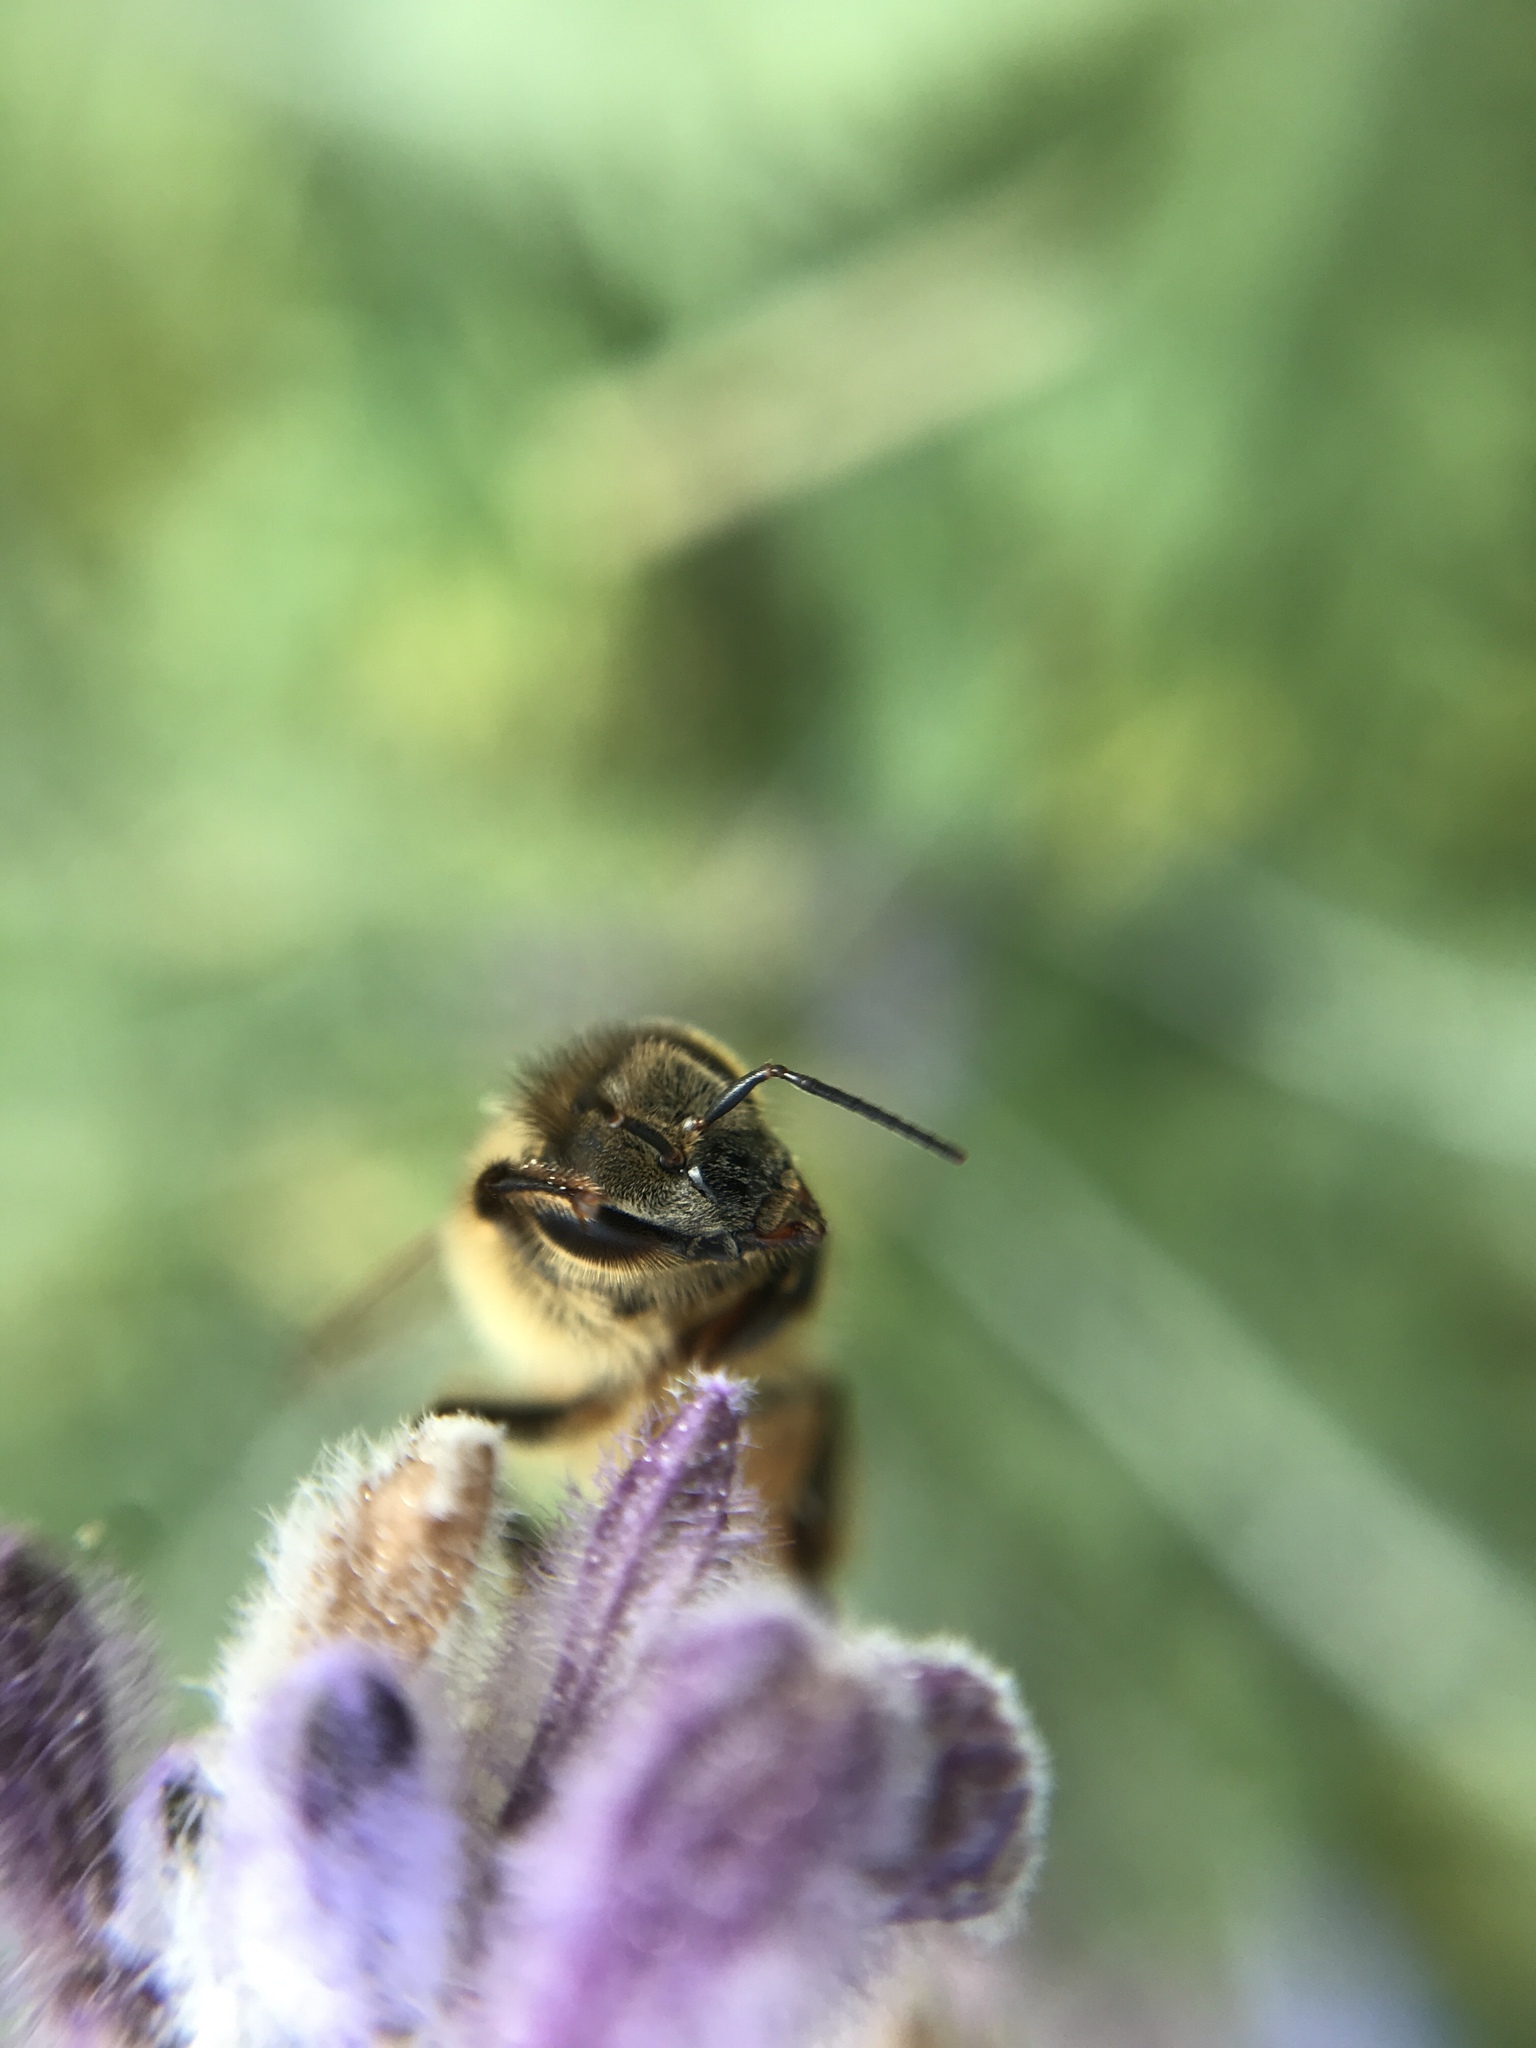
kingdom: Animalia
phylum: Arthropoda
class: Insecta
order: Hymenoptera
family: Apidae
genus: Apis
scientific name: Apis mellifera
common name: Honey bee
